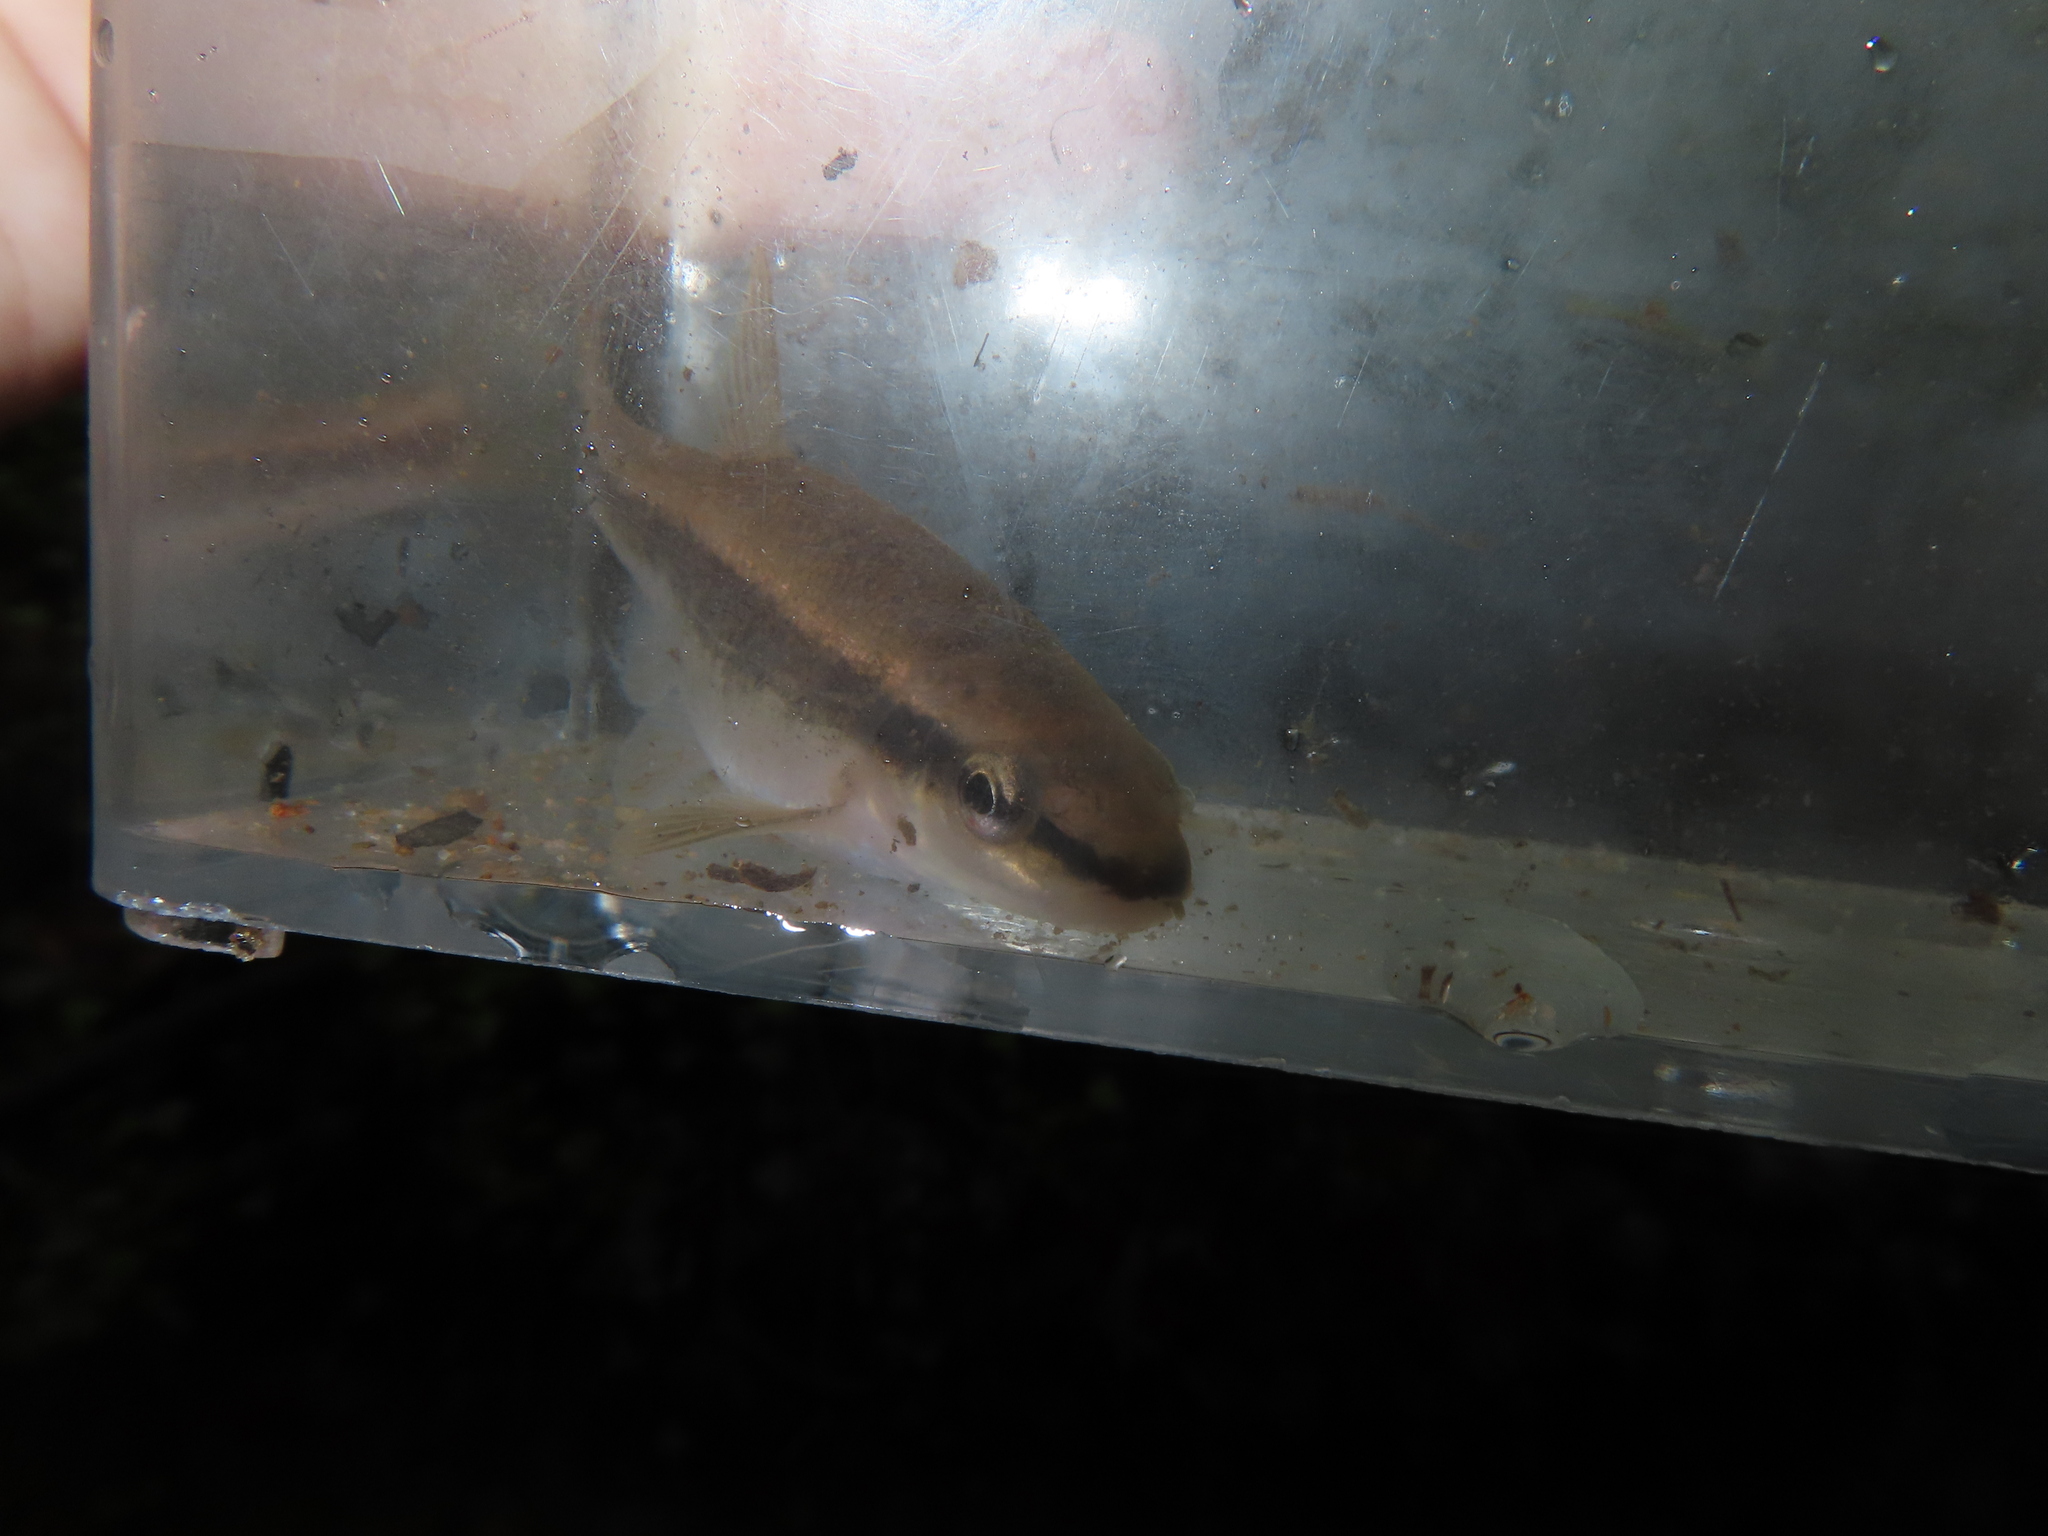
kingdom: Animalia
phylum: Chordata
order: Cypriniformes
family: Cyprinidae
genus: Rhinichthys
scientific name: Rhinichthys atratulus
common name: Eastern blacknose dace
